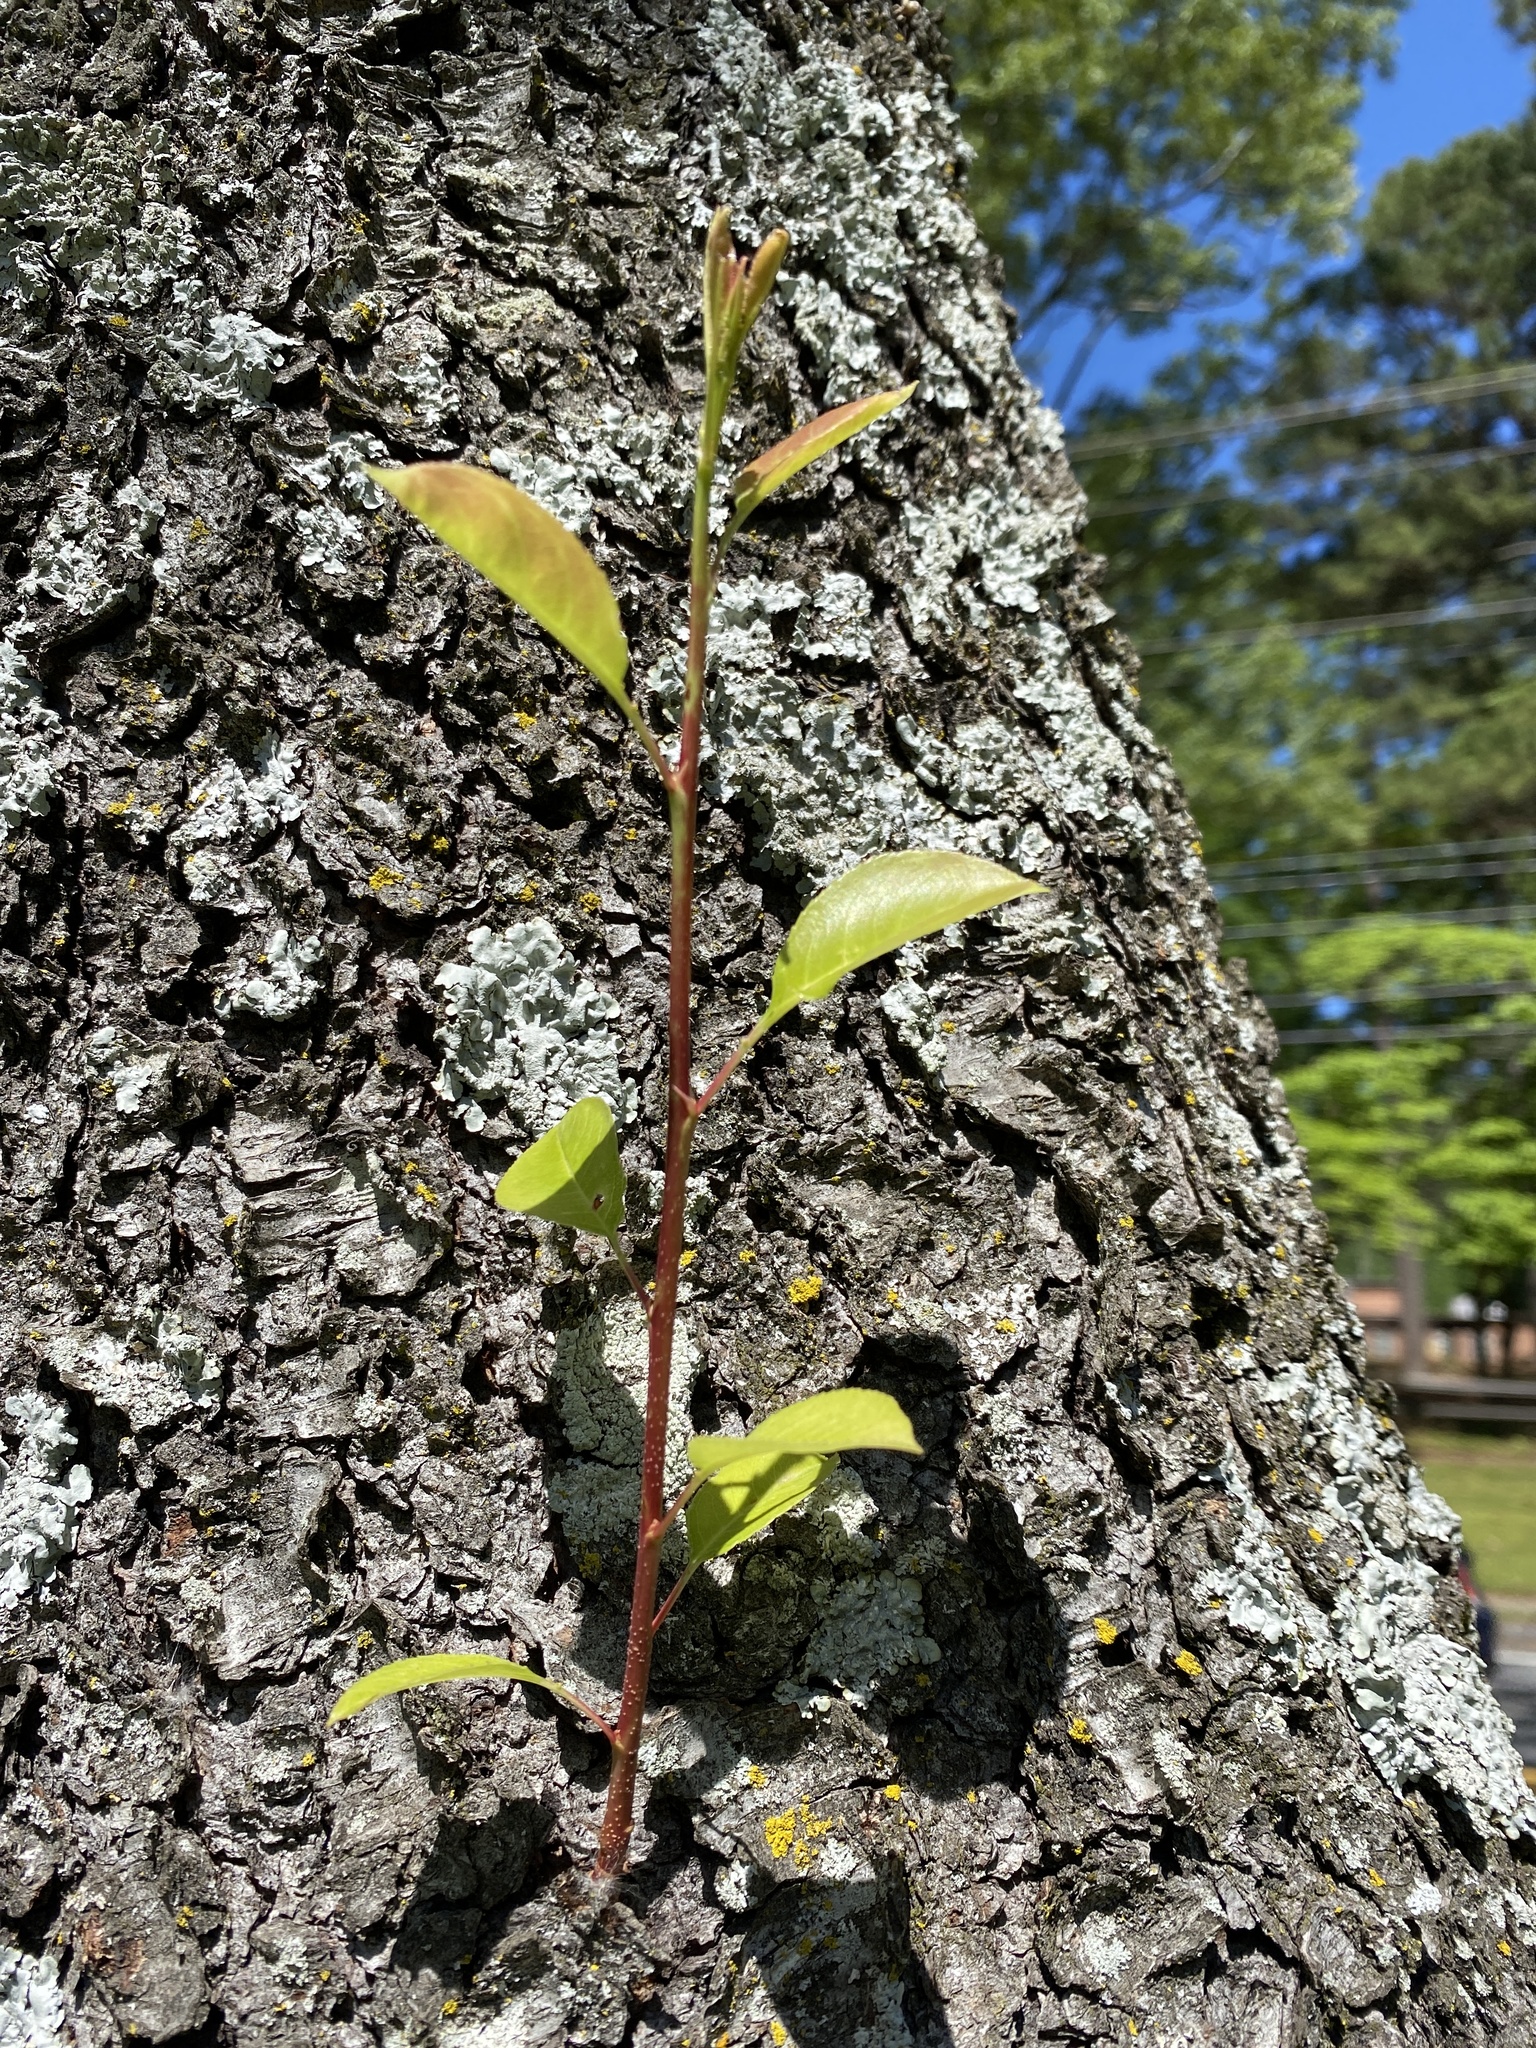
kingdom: Plantae
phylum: Tracheophyta
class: Magnoliopsida
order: Rosales
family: Rosaceae
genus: Prunus
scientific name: Prunus serotina
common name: Black cherry
